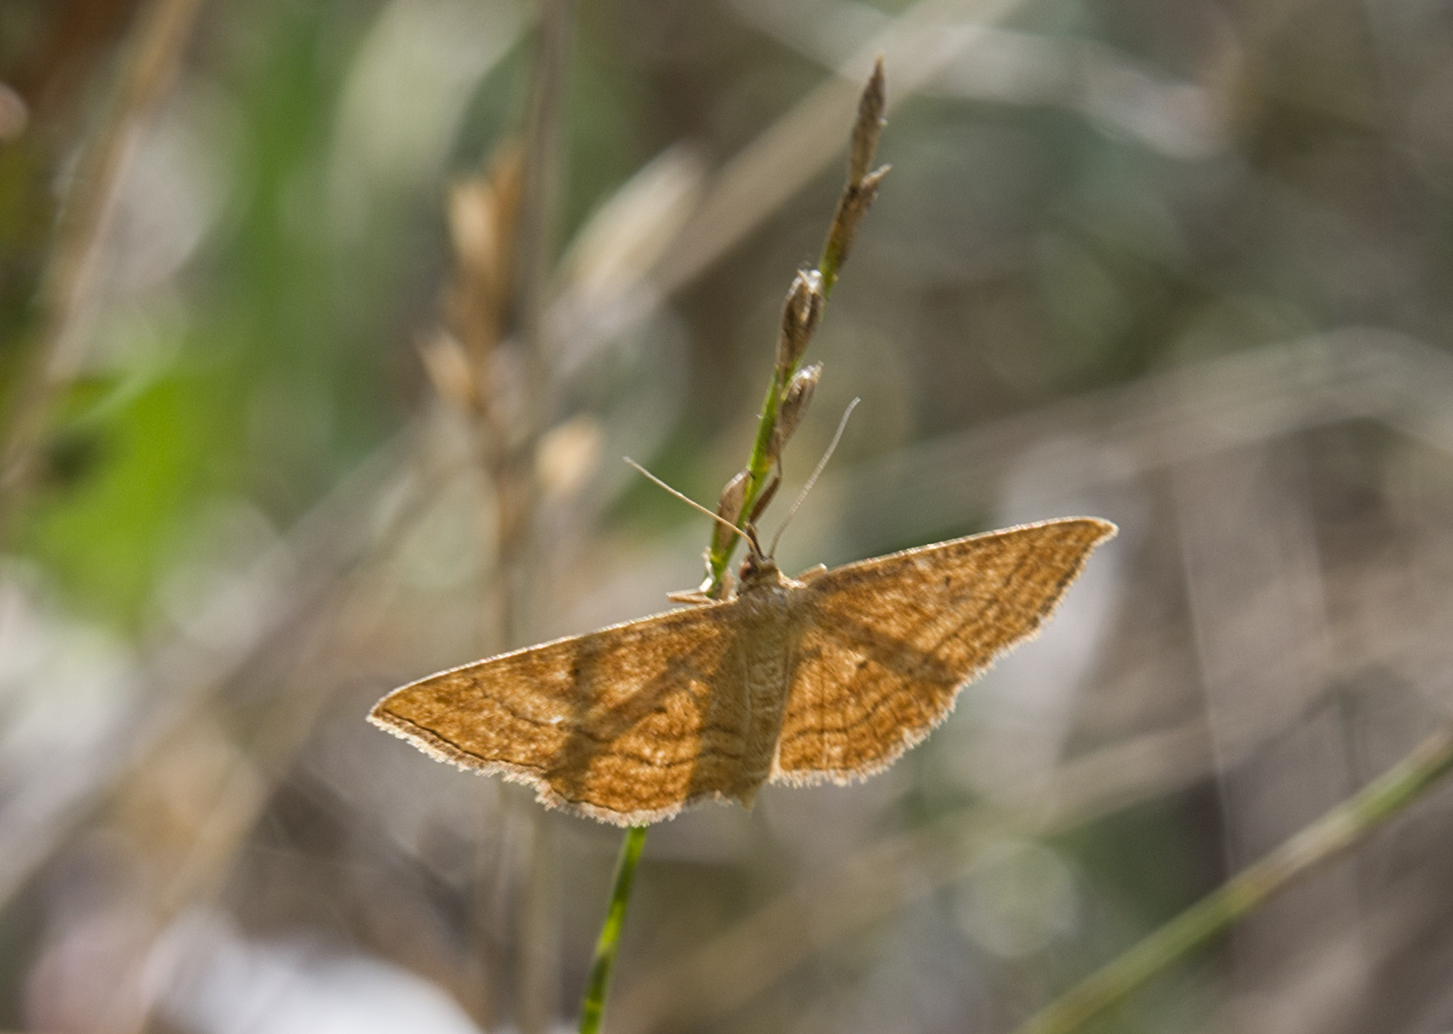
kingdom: Animalia
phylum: Arthropoda
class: Insecta
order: Lepidoptera
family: Geometridae
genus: Idaea
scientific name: Idaea rufaria
